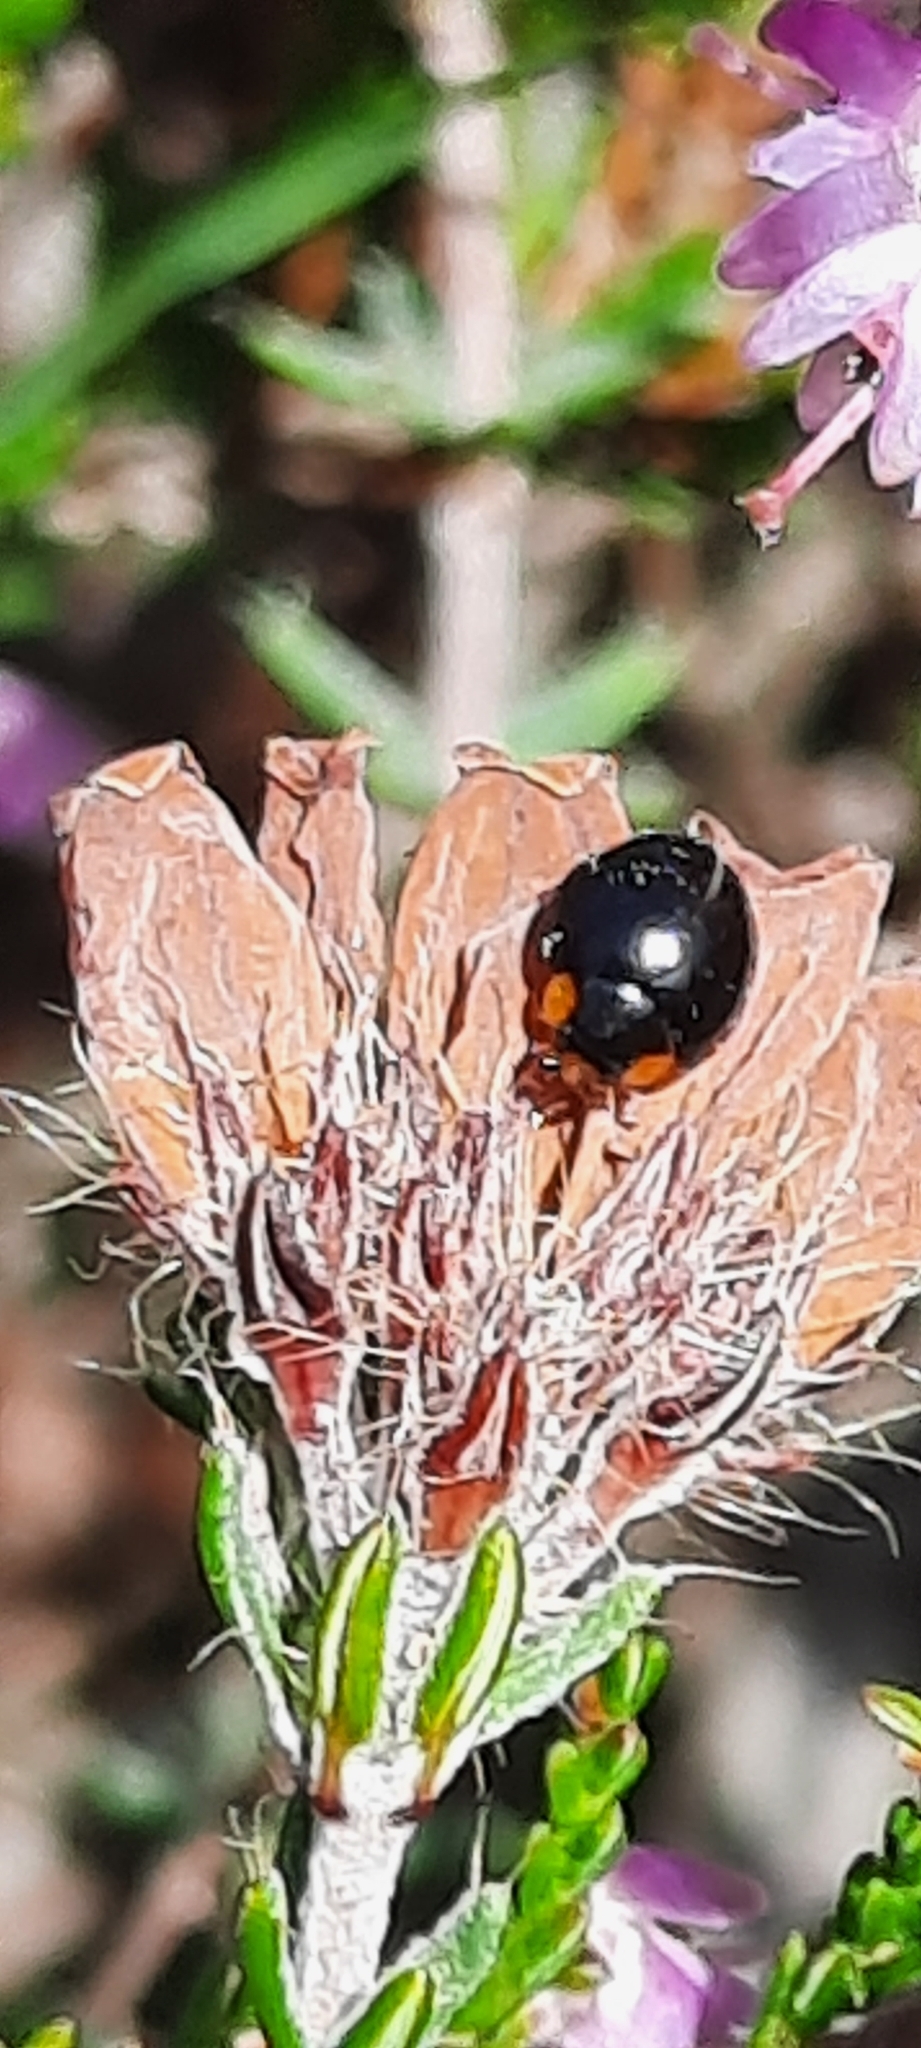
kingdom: Animalia
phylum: Arthropoda
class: Insecta
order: Coleoptera
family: Coccinellidae
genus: Parexochomus
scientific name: Parexochomus nigromaculatus
